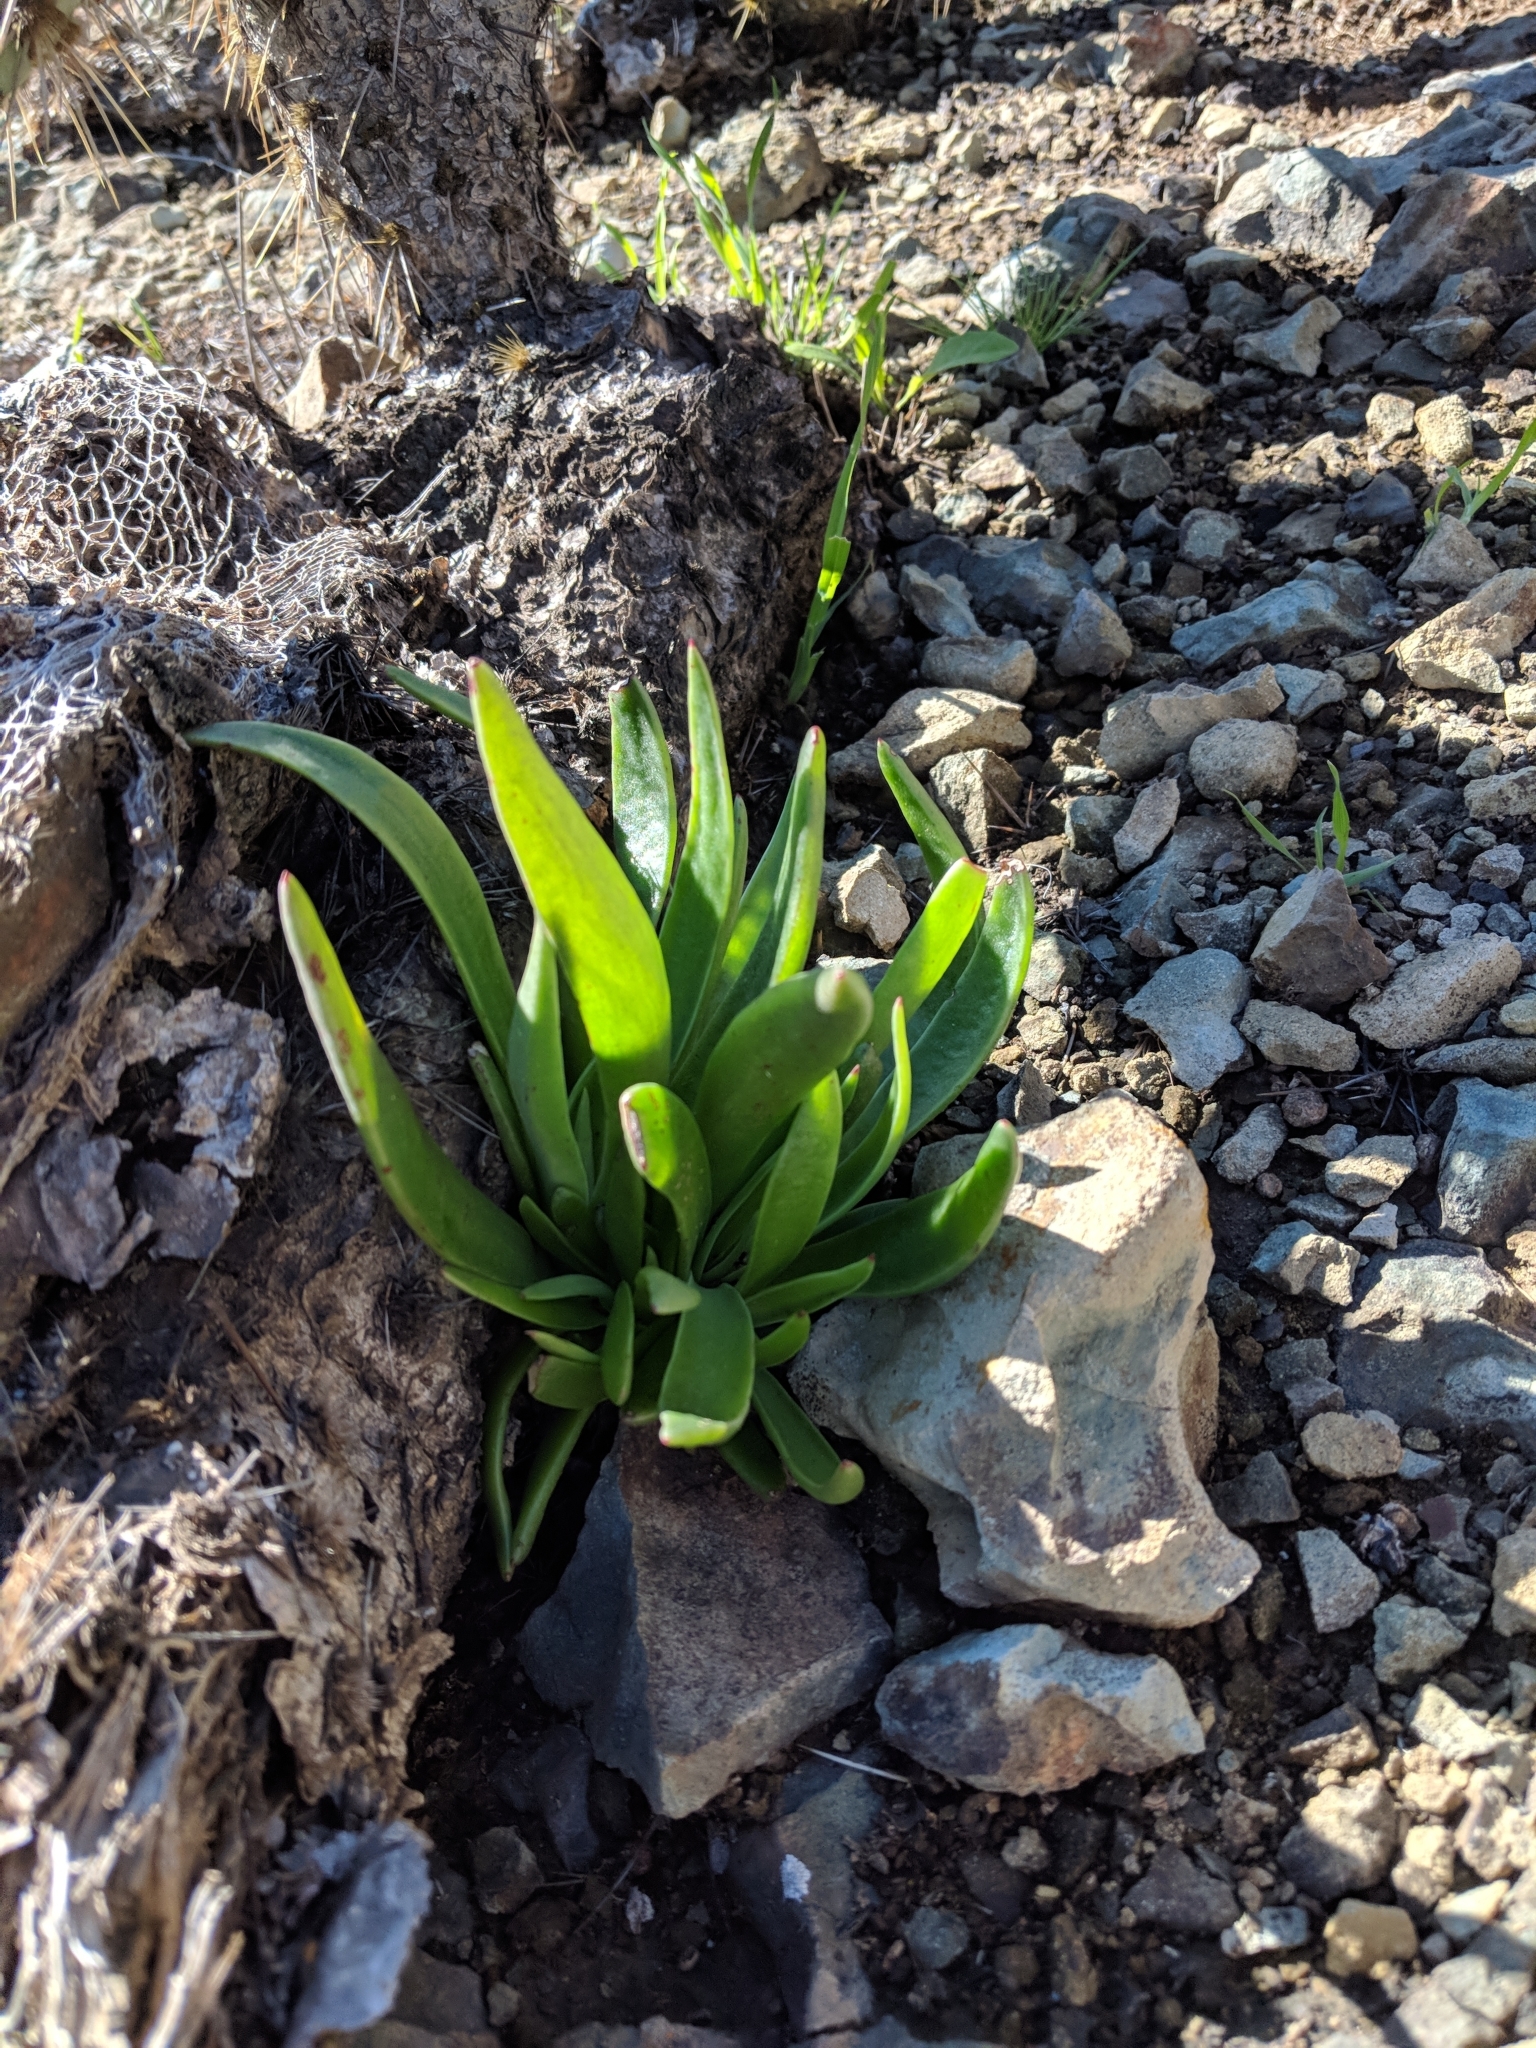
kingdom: Plantae
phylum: Tracheophyta
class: Magnoliopsida
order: Saxifragales
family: Crassulaceae
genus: Dudleya
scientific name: Dudleya lanceolata
